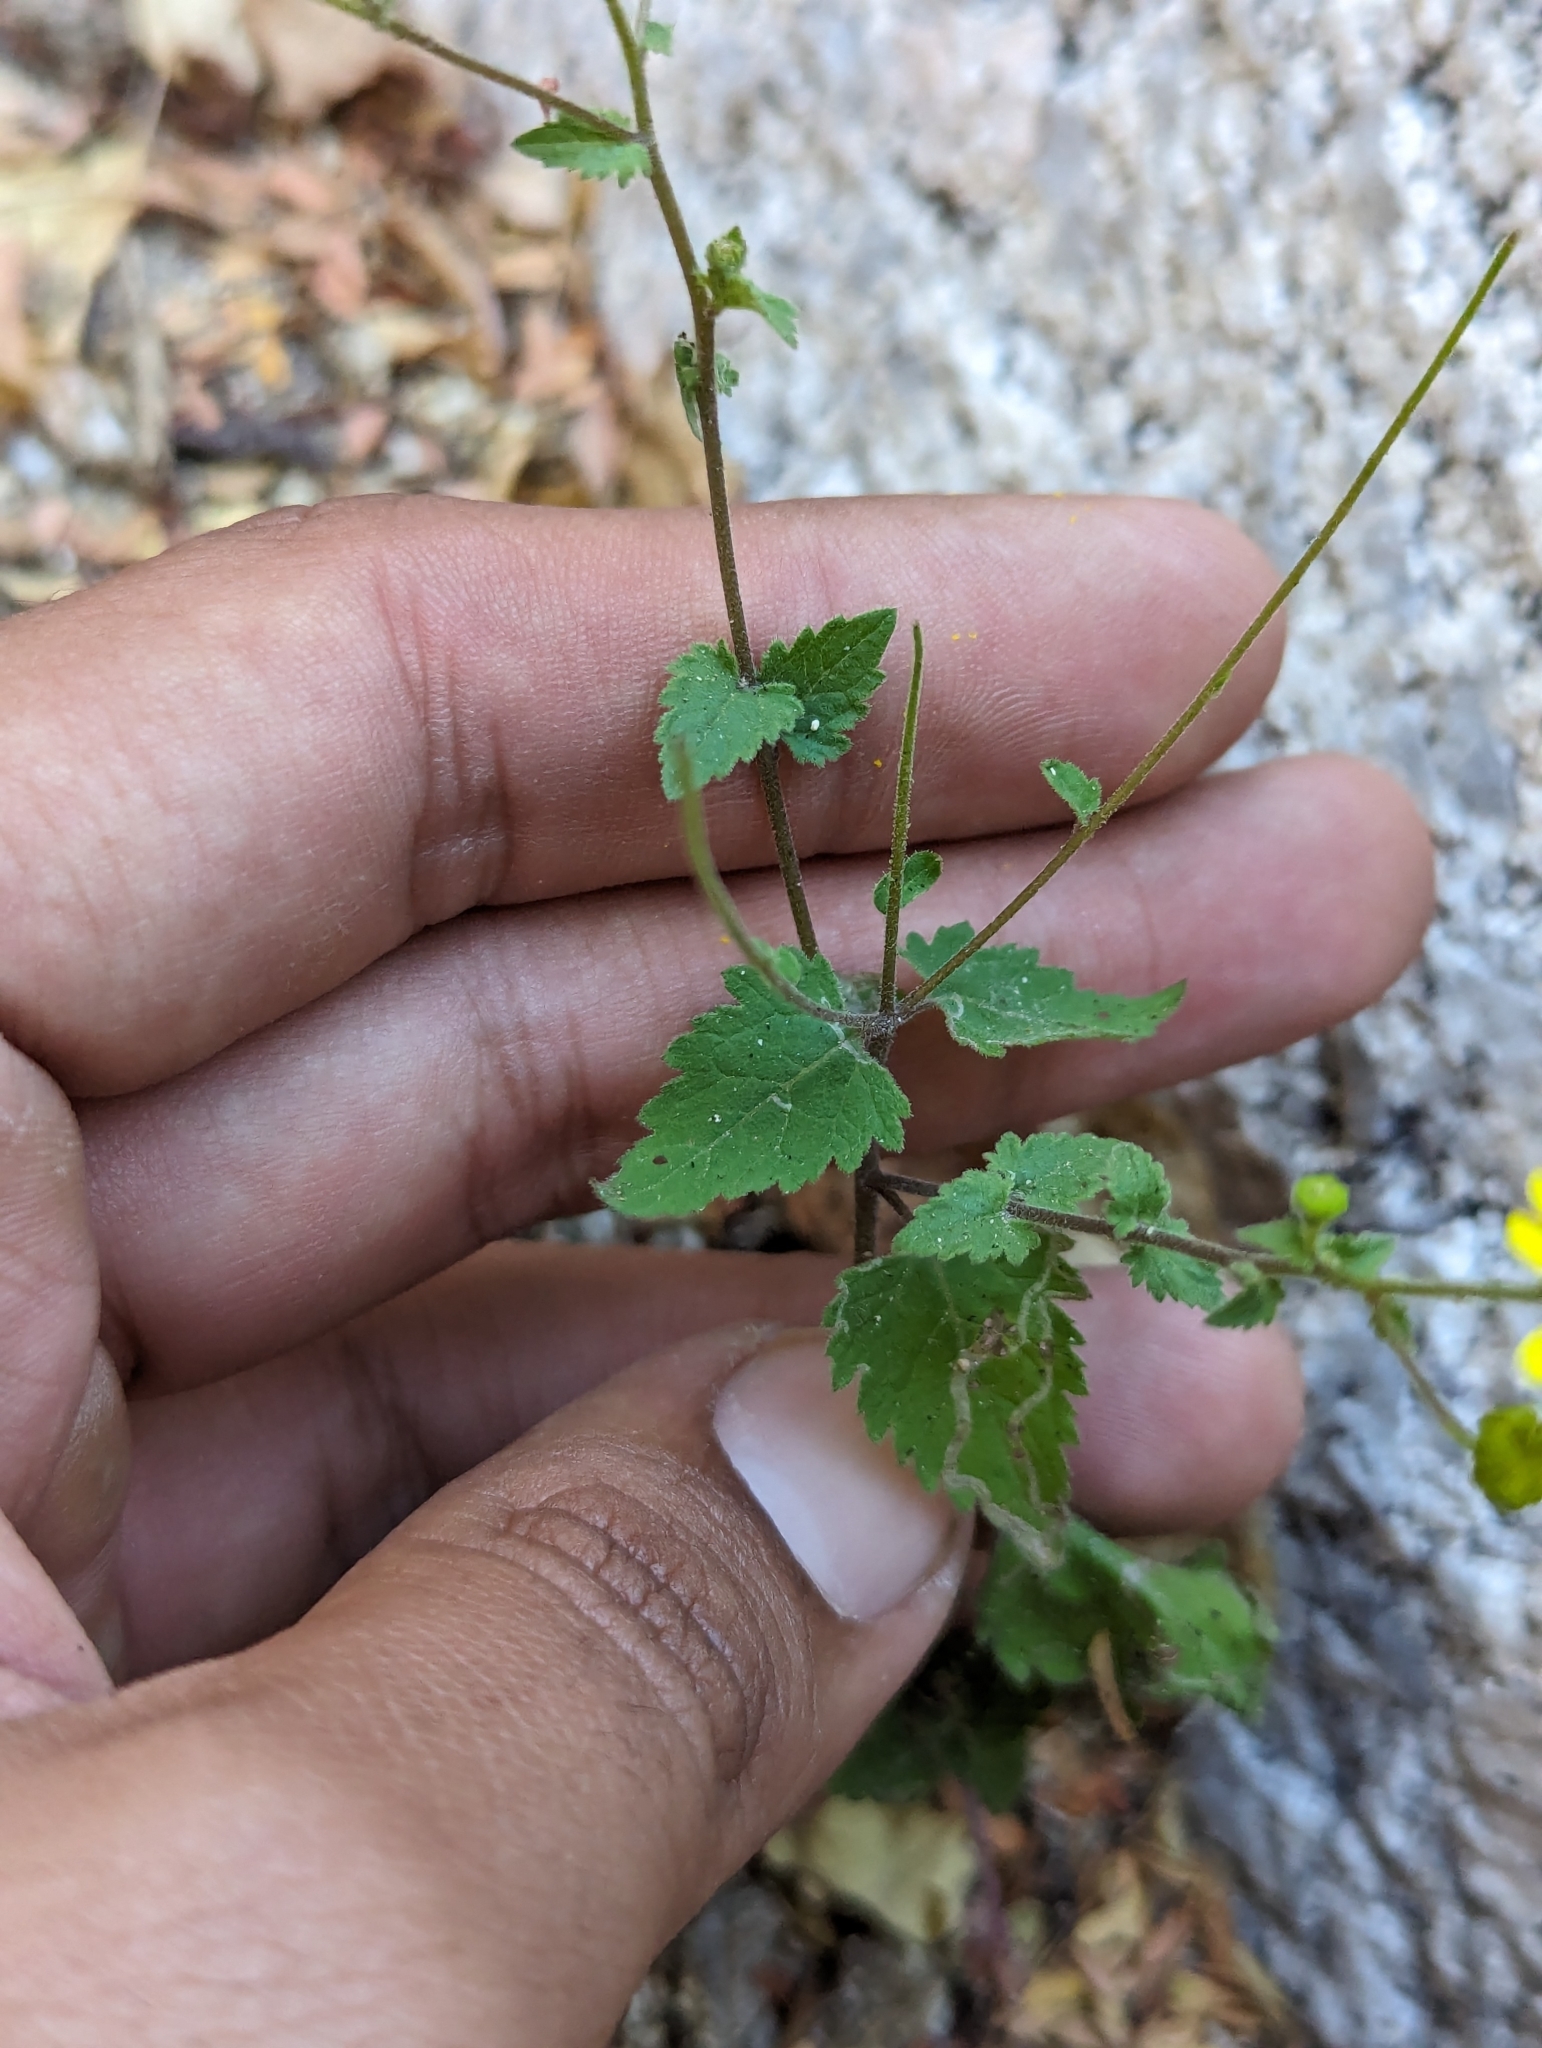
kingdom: Plantae
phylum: Tracheophyta
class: Magnoliopsida
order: Asterales
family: Asteraceae
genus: Perityle
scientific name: Perityle cuneata
